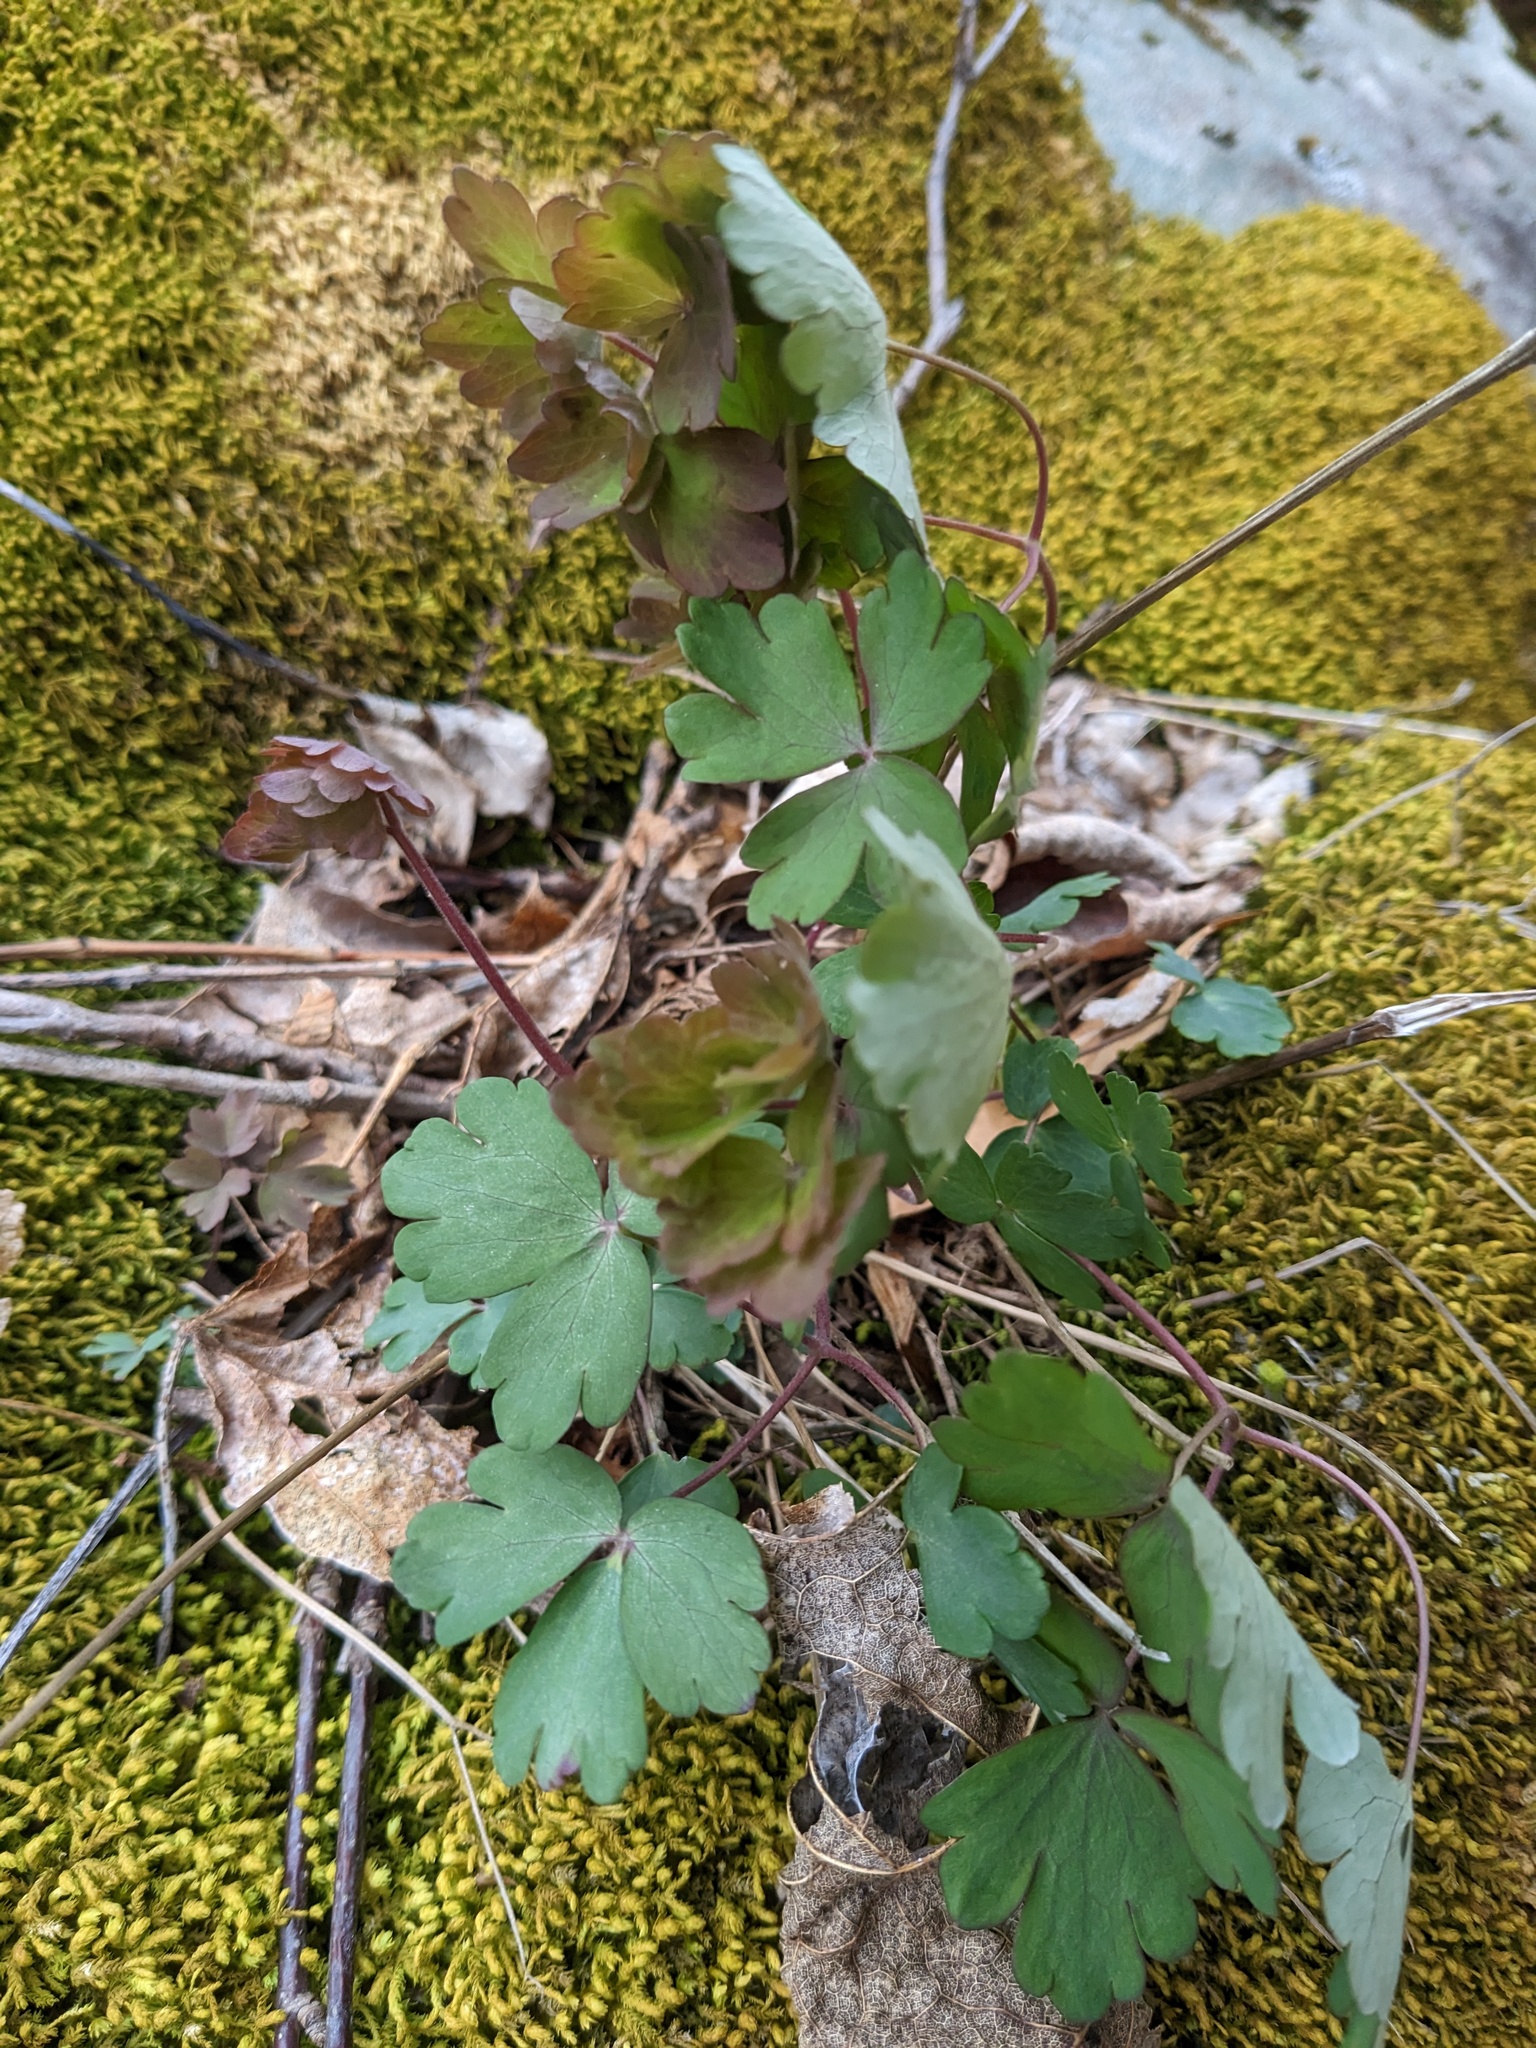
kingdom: Plantae
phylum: Tracheophyta
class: Magnoliopsida
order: Ranunculales
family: Ranunculaceae
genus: Aquilegia
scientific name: Aquilegia canadensis
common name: American columbine
